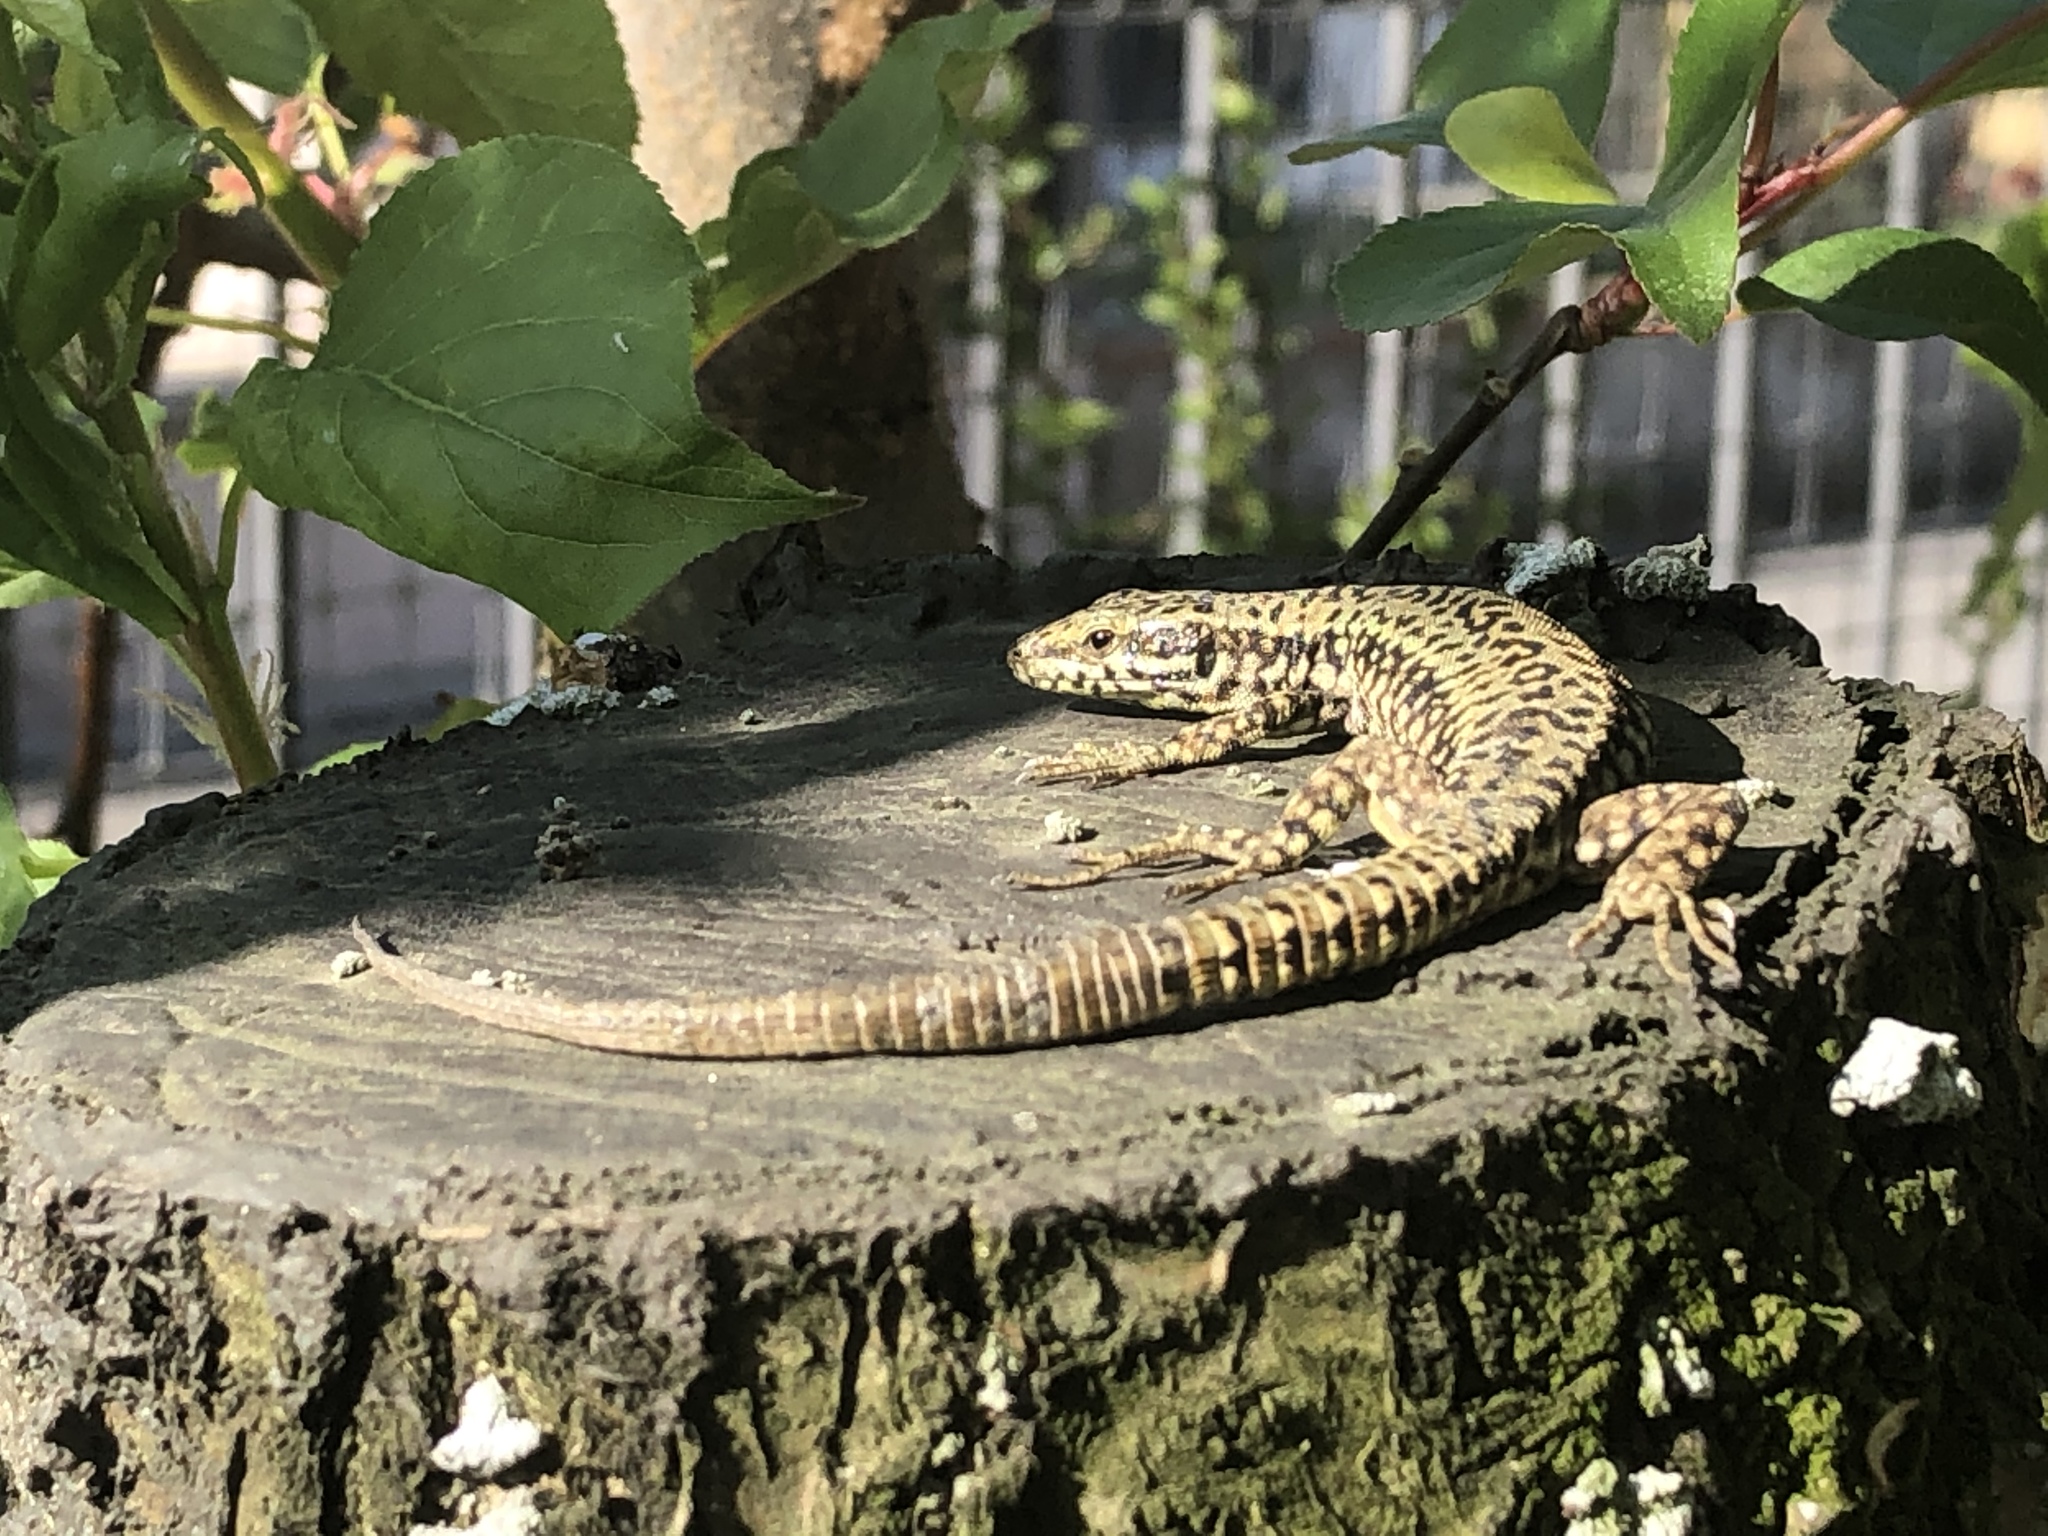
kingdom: Animalia
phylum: Chordata
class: Squamata
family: Lacertidae
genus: Podarcis
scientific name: Podarcis muralis
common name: Common wall lizard
